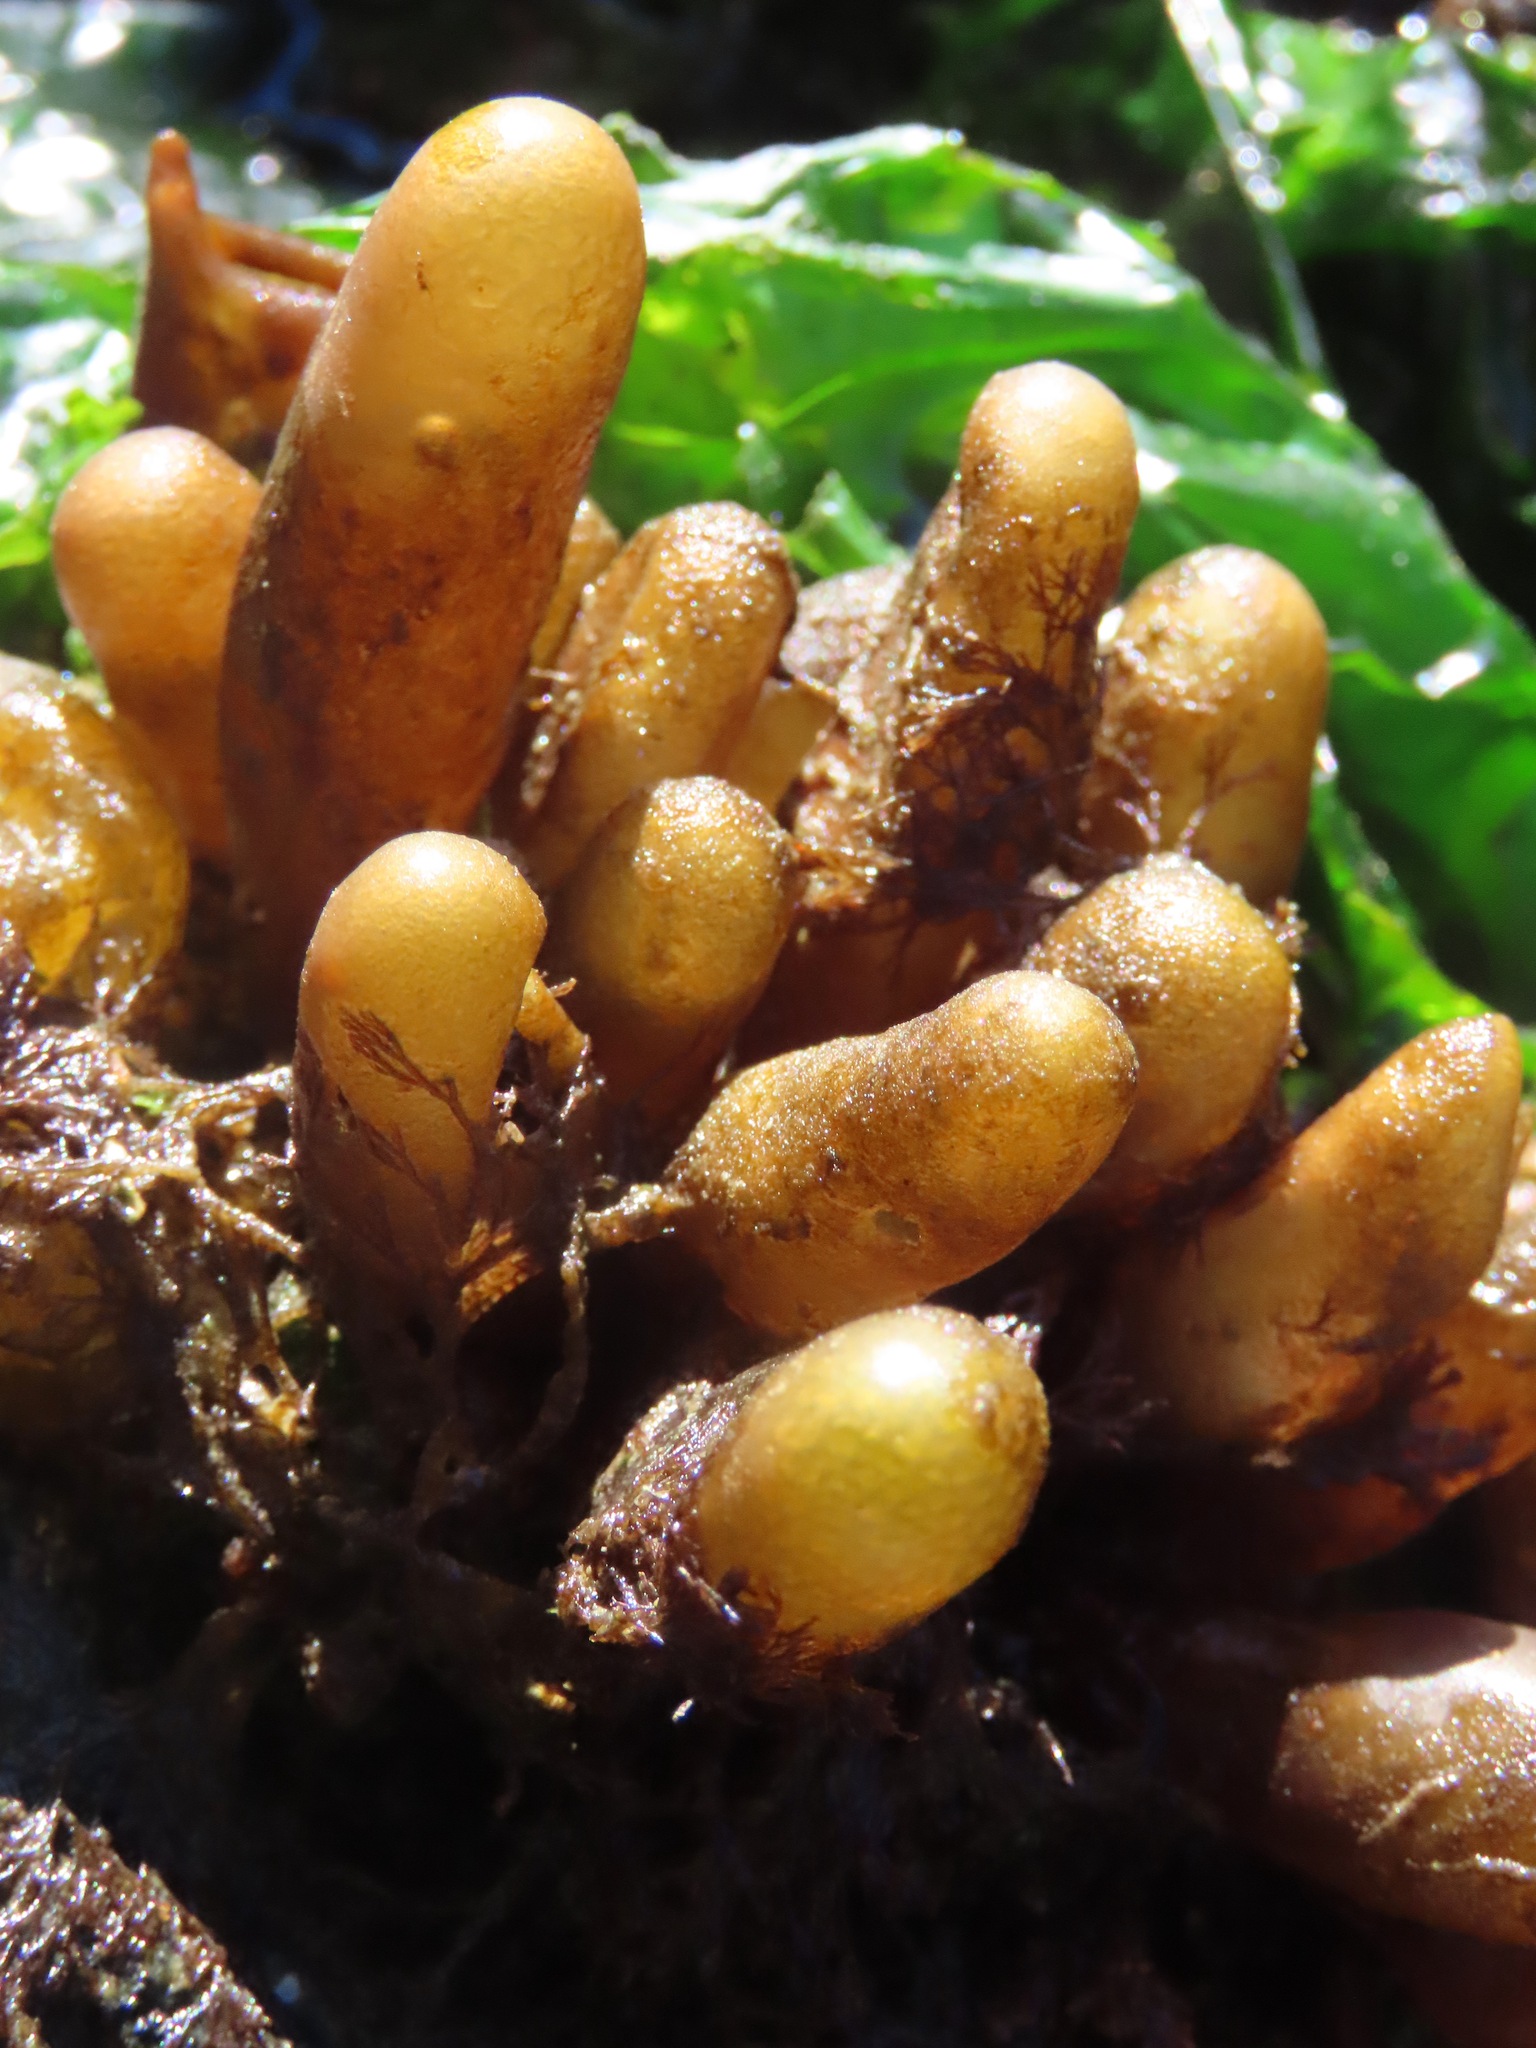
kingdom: Plantae
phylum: Rhodophyta
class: Florideophyceae
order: Palmariales
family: Palmariaceae
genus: Halosaccion
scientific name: Halosaccion glandiforme
